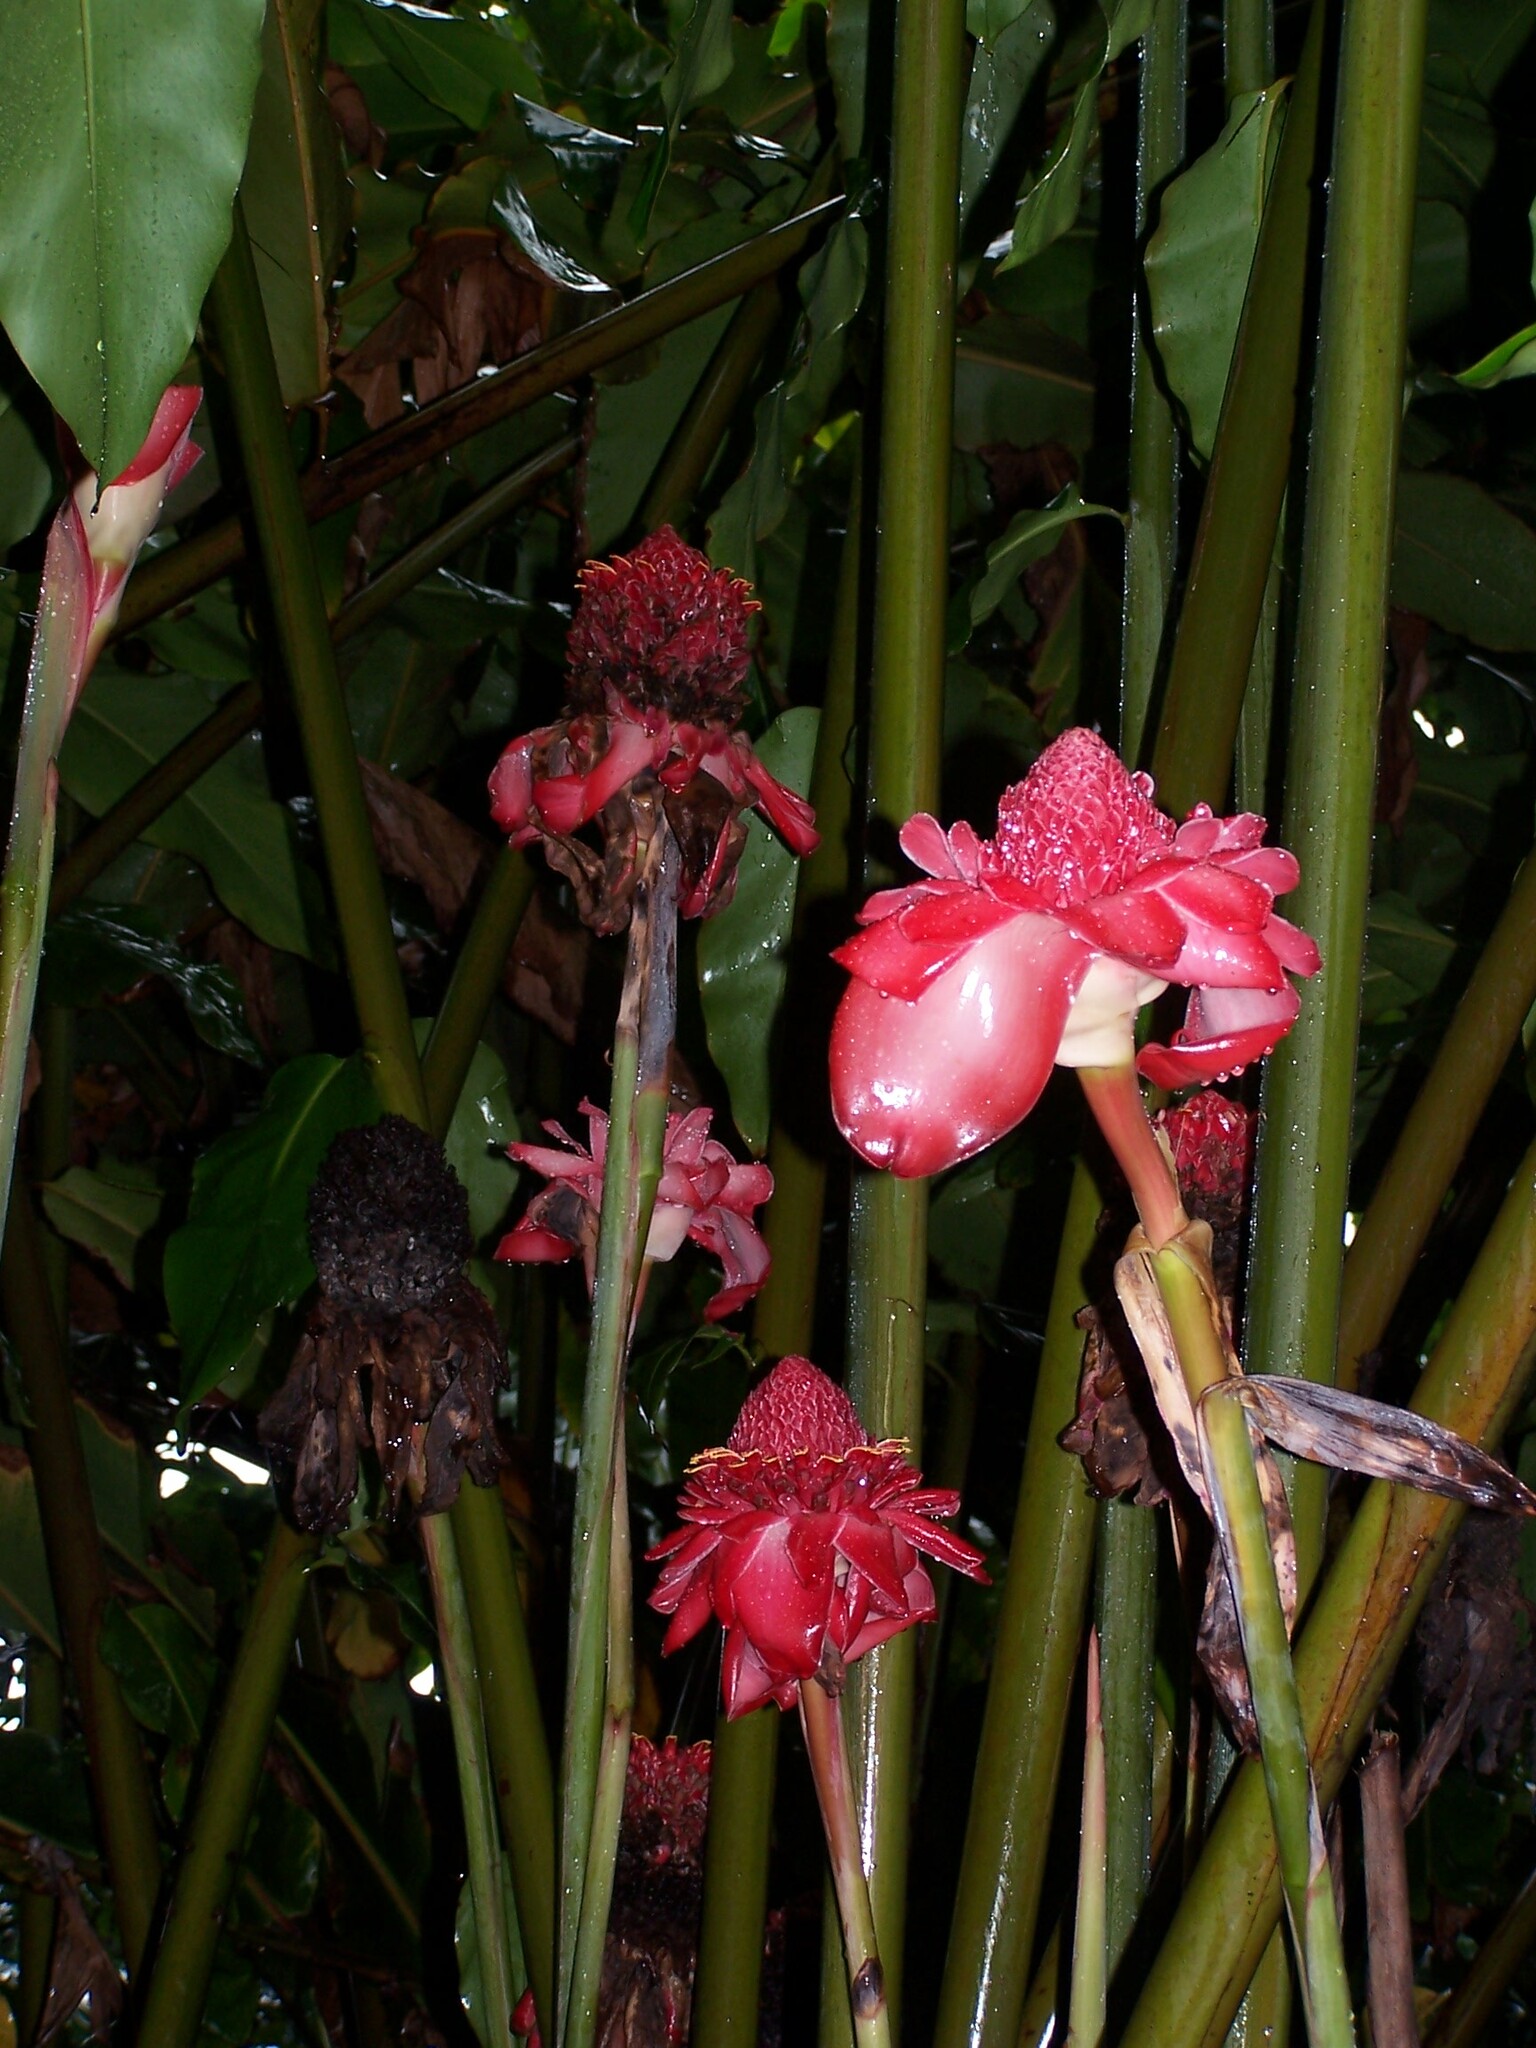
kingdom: Plantae
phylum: Tracheophyta
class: Liliopsida
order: Zingiberales
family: Zingiberaceae
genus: Etlingera
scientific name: Etlingera elatior
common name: Philippine waxflower
